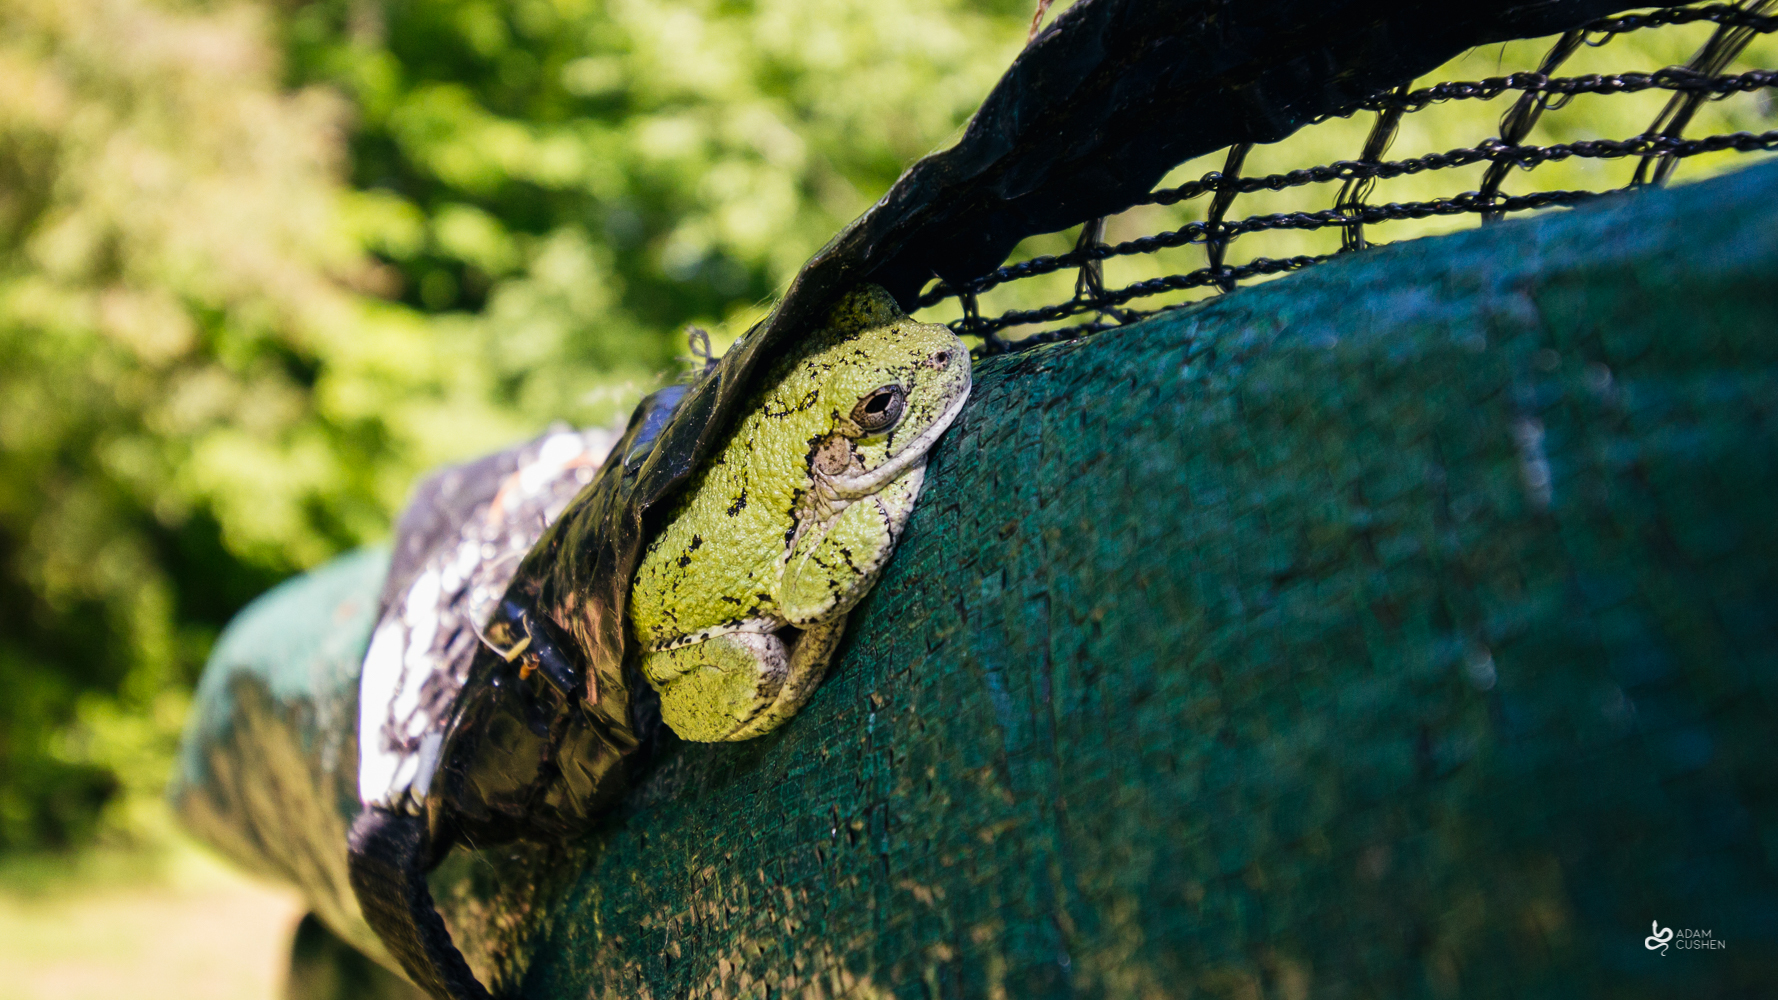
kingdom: Animalia
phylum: Chordata
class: Amphibia
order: Anura
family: Hylidae
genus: Dryophytes
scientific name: Dryophytes versicolor
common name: Gray treefrog
